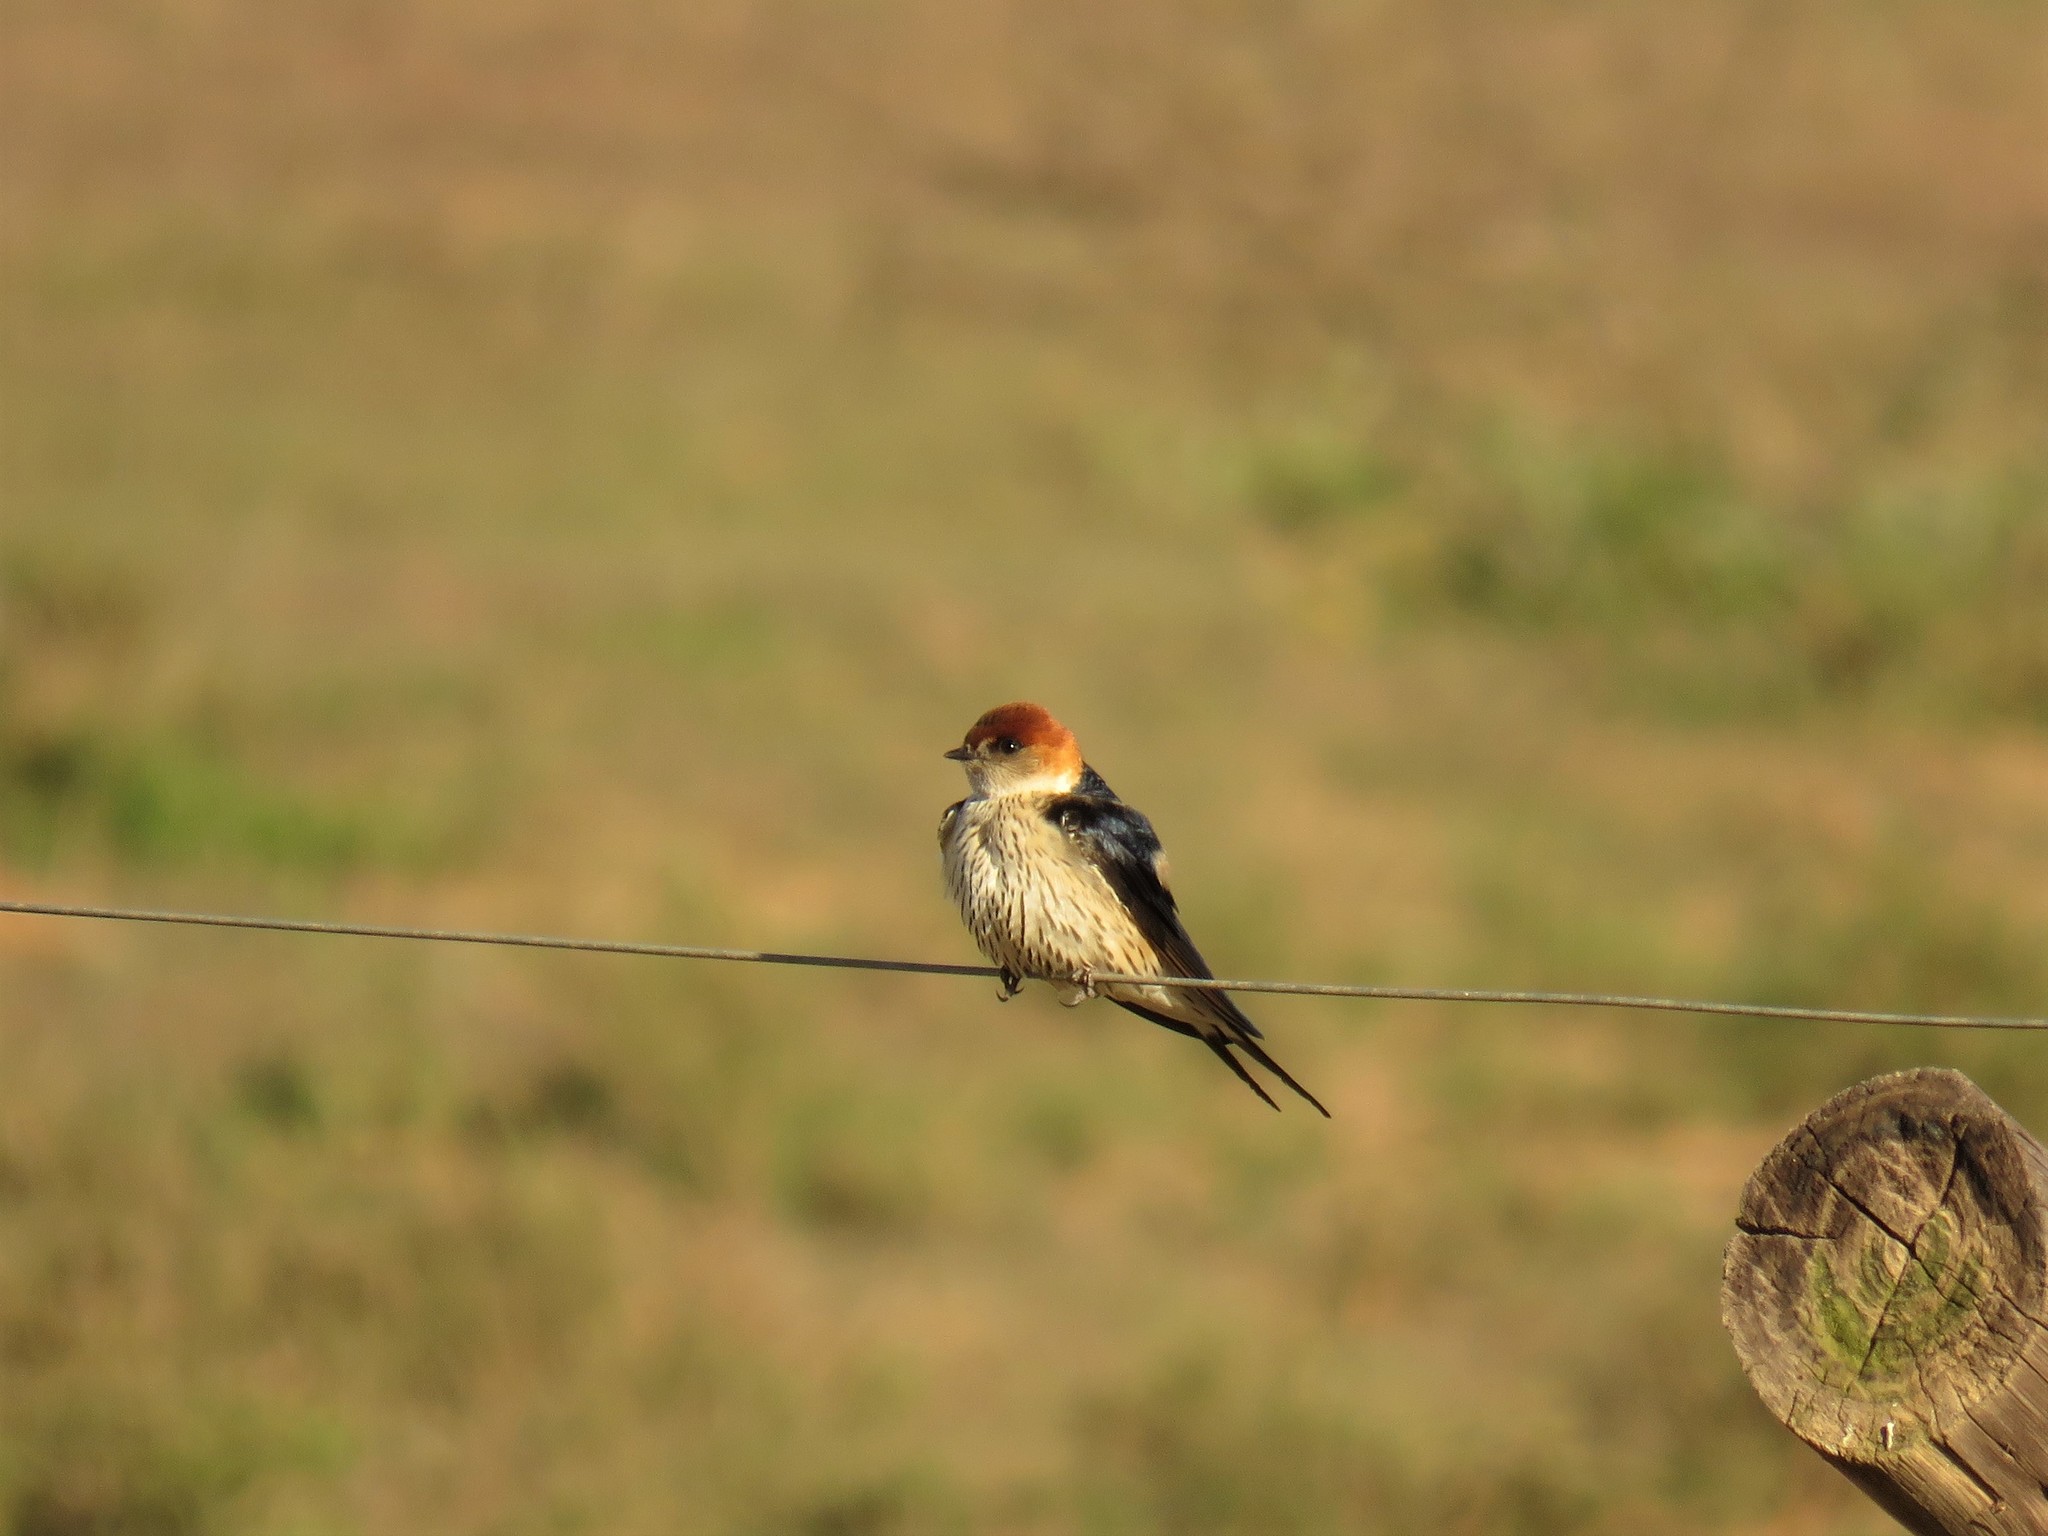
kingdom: Animalia
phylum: Chordata
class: Aves
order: Passeriformes
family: Hirundinidae
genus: Cecropis
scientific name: Cecropis cucullata
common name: Greater striped-swallow
